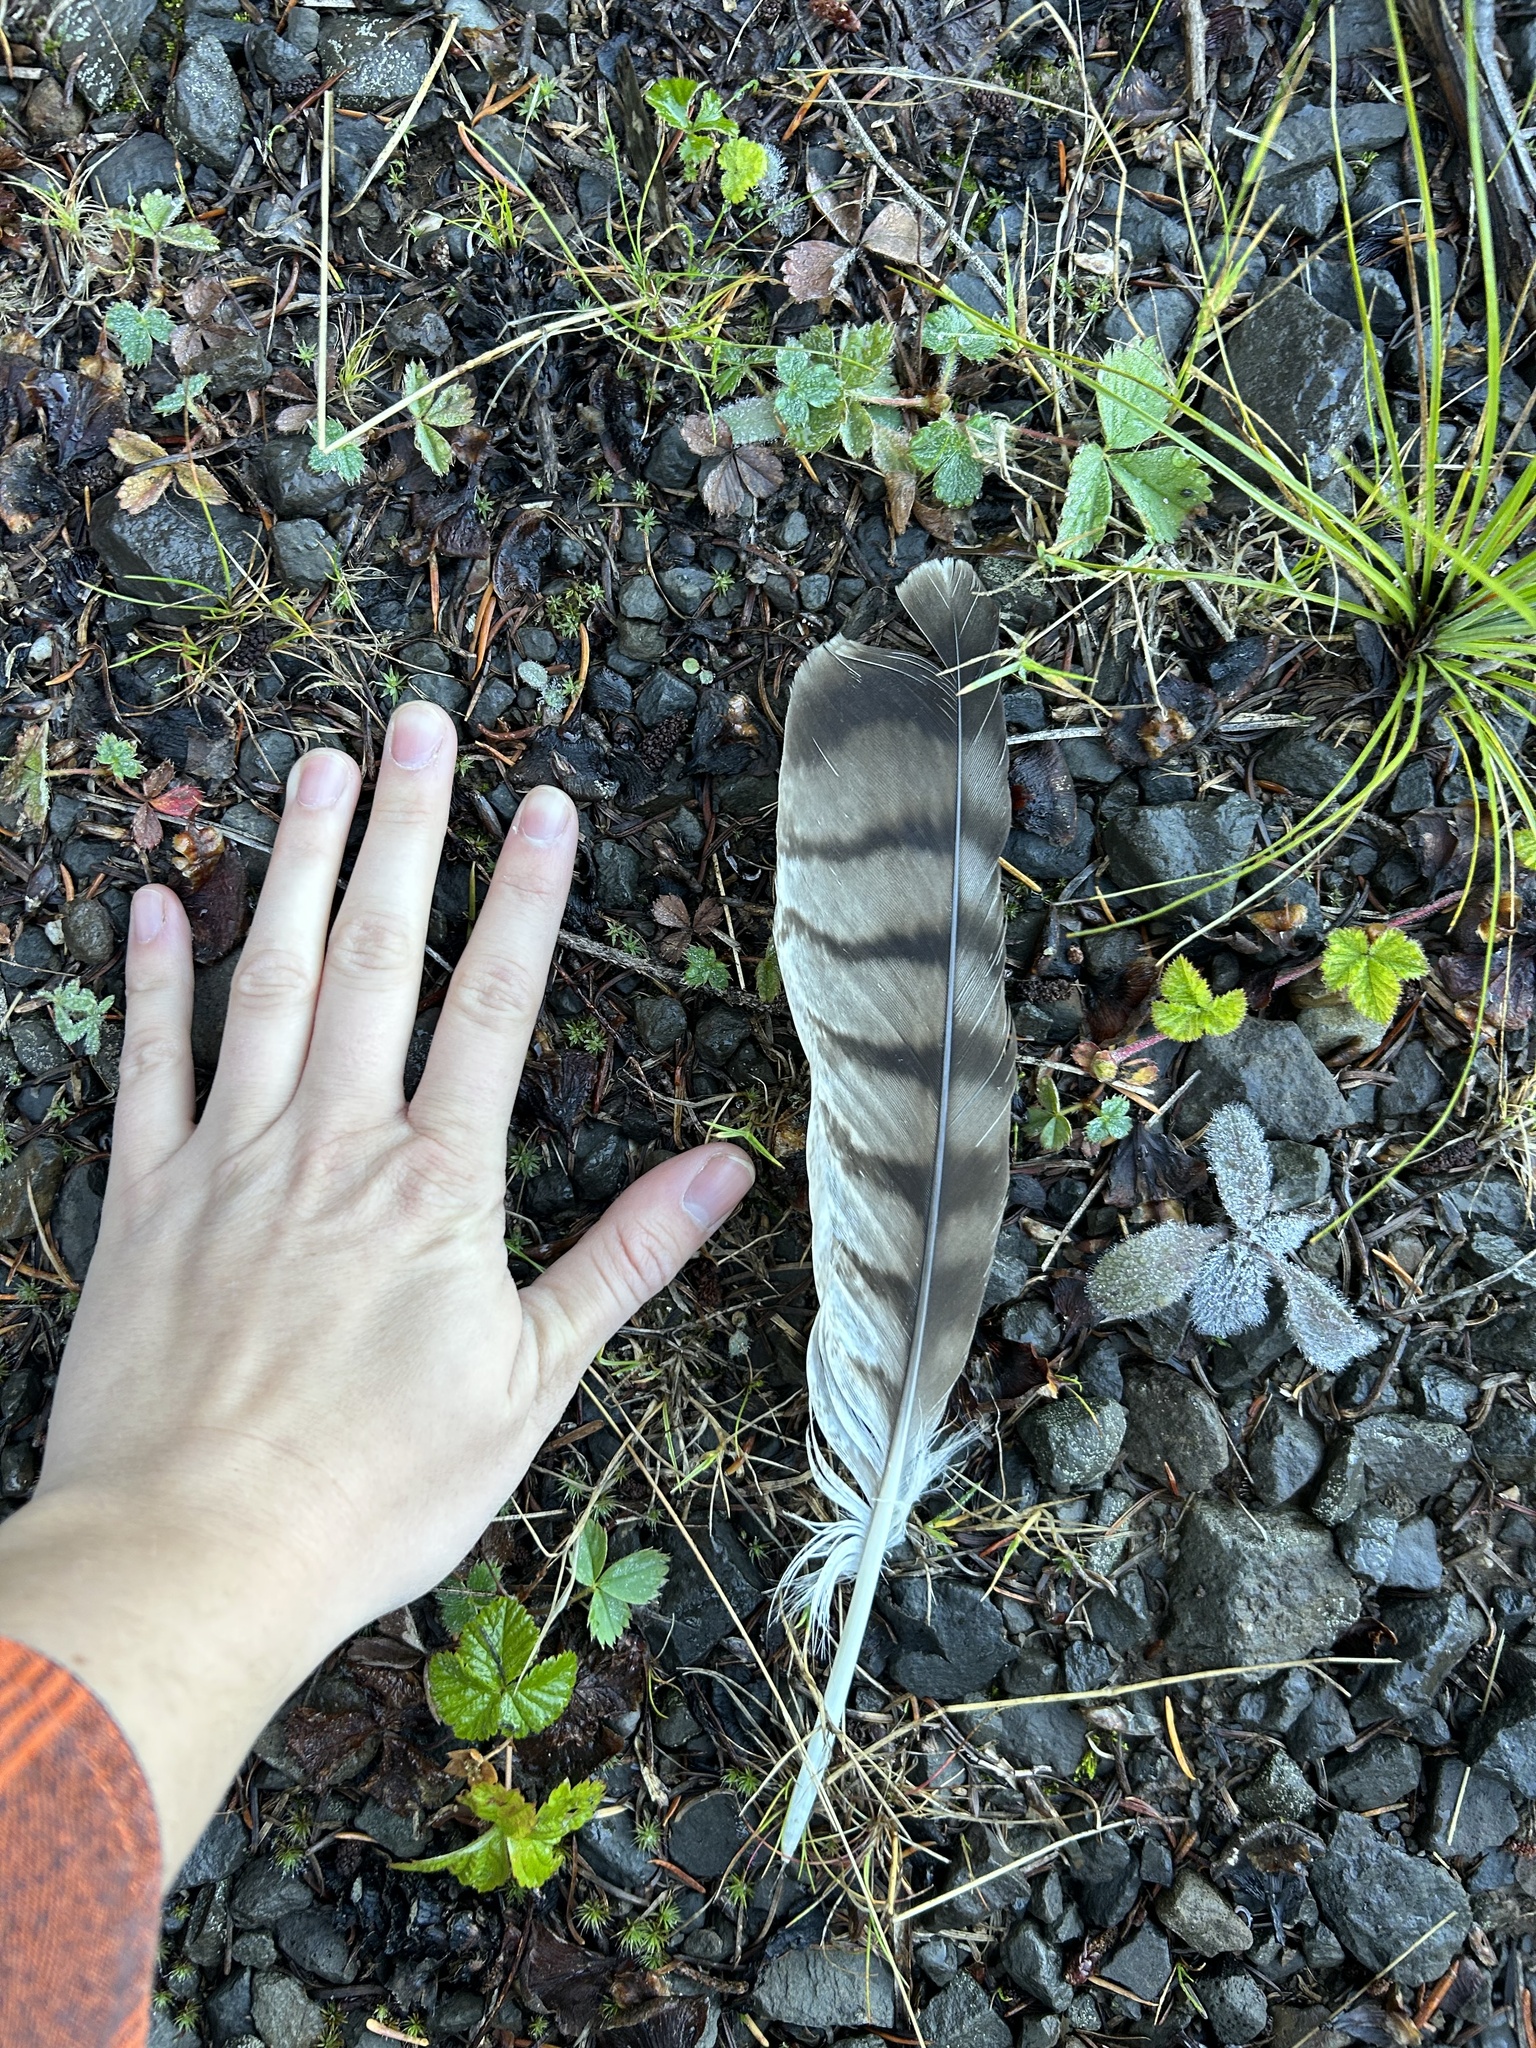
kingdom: Animalia
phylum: Chordata
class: Aves
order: Accipitriformes
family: Accipitridae
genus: Buteo
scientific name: Buteo jamaicensis
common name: Red-tailed hawk
